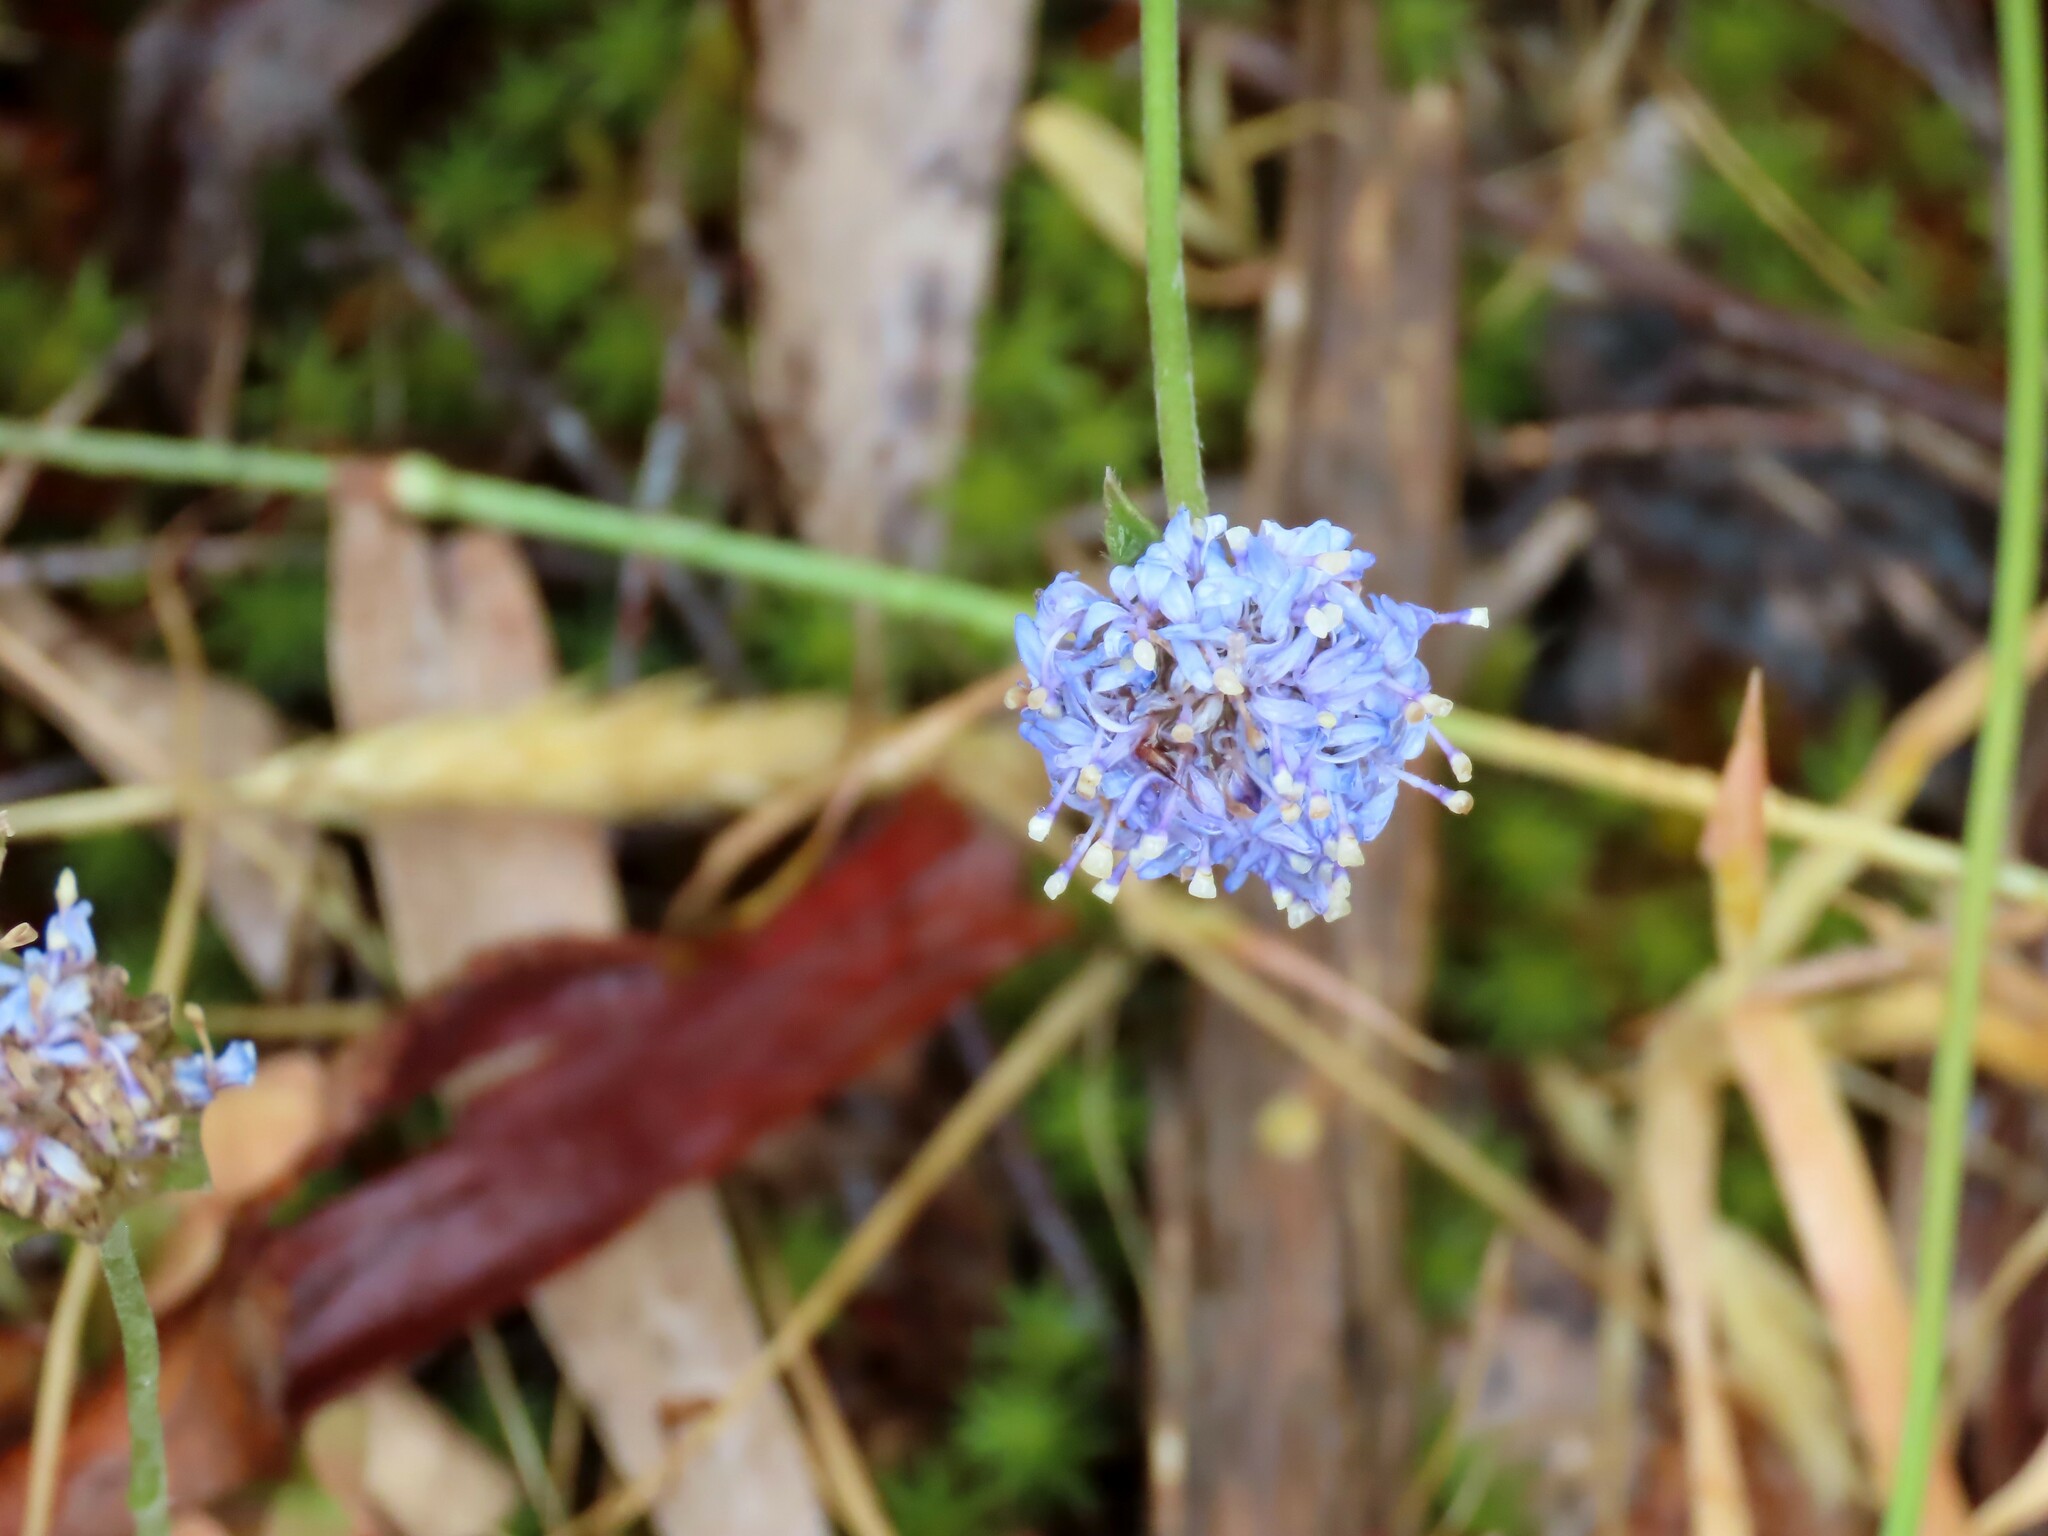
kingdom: Plantae
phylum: Tracheophyta
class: Magnoliopsida
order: Asterales
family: Goodeniaceae
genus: Brunonia
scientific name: Brunonia australis
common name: Blue pincushion
